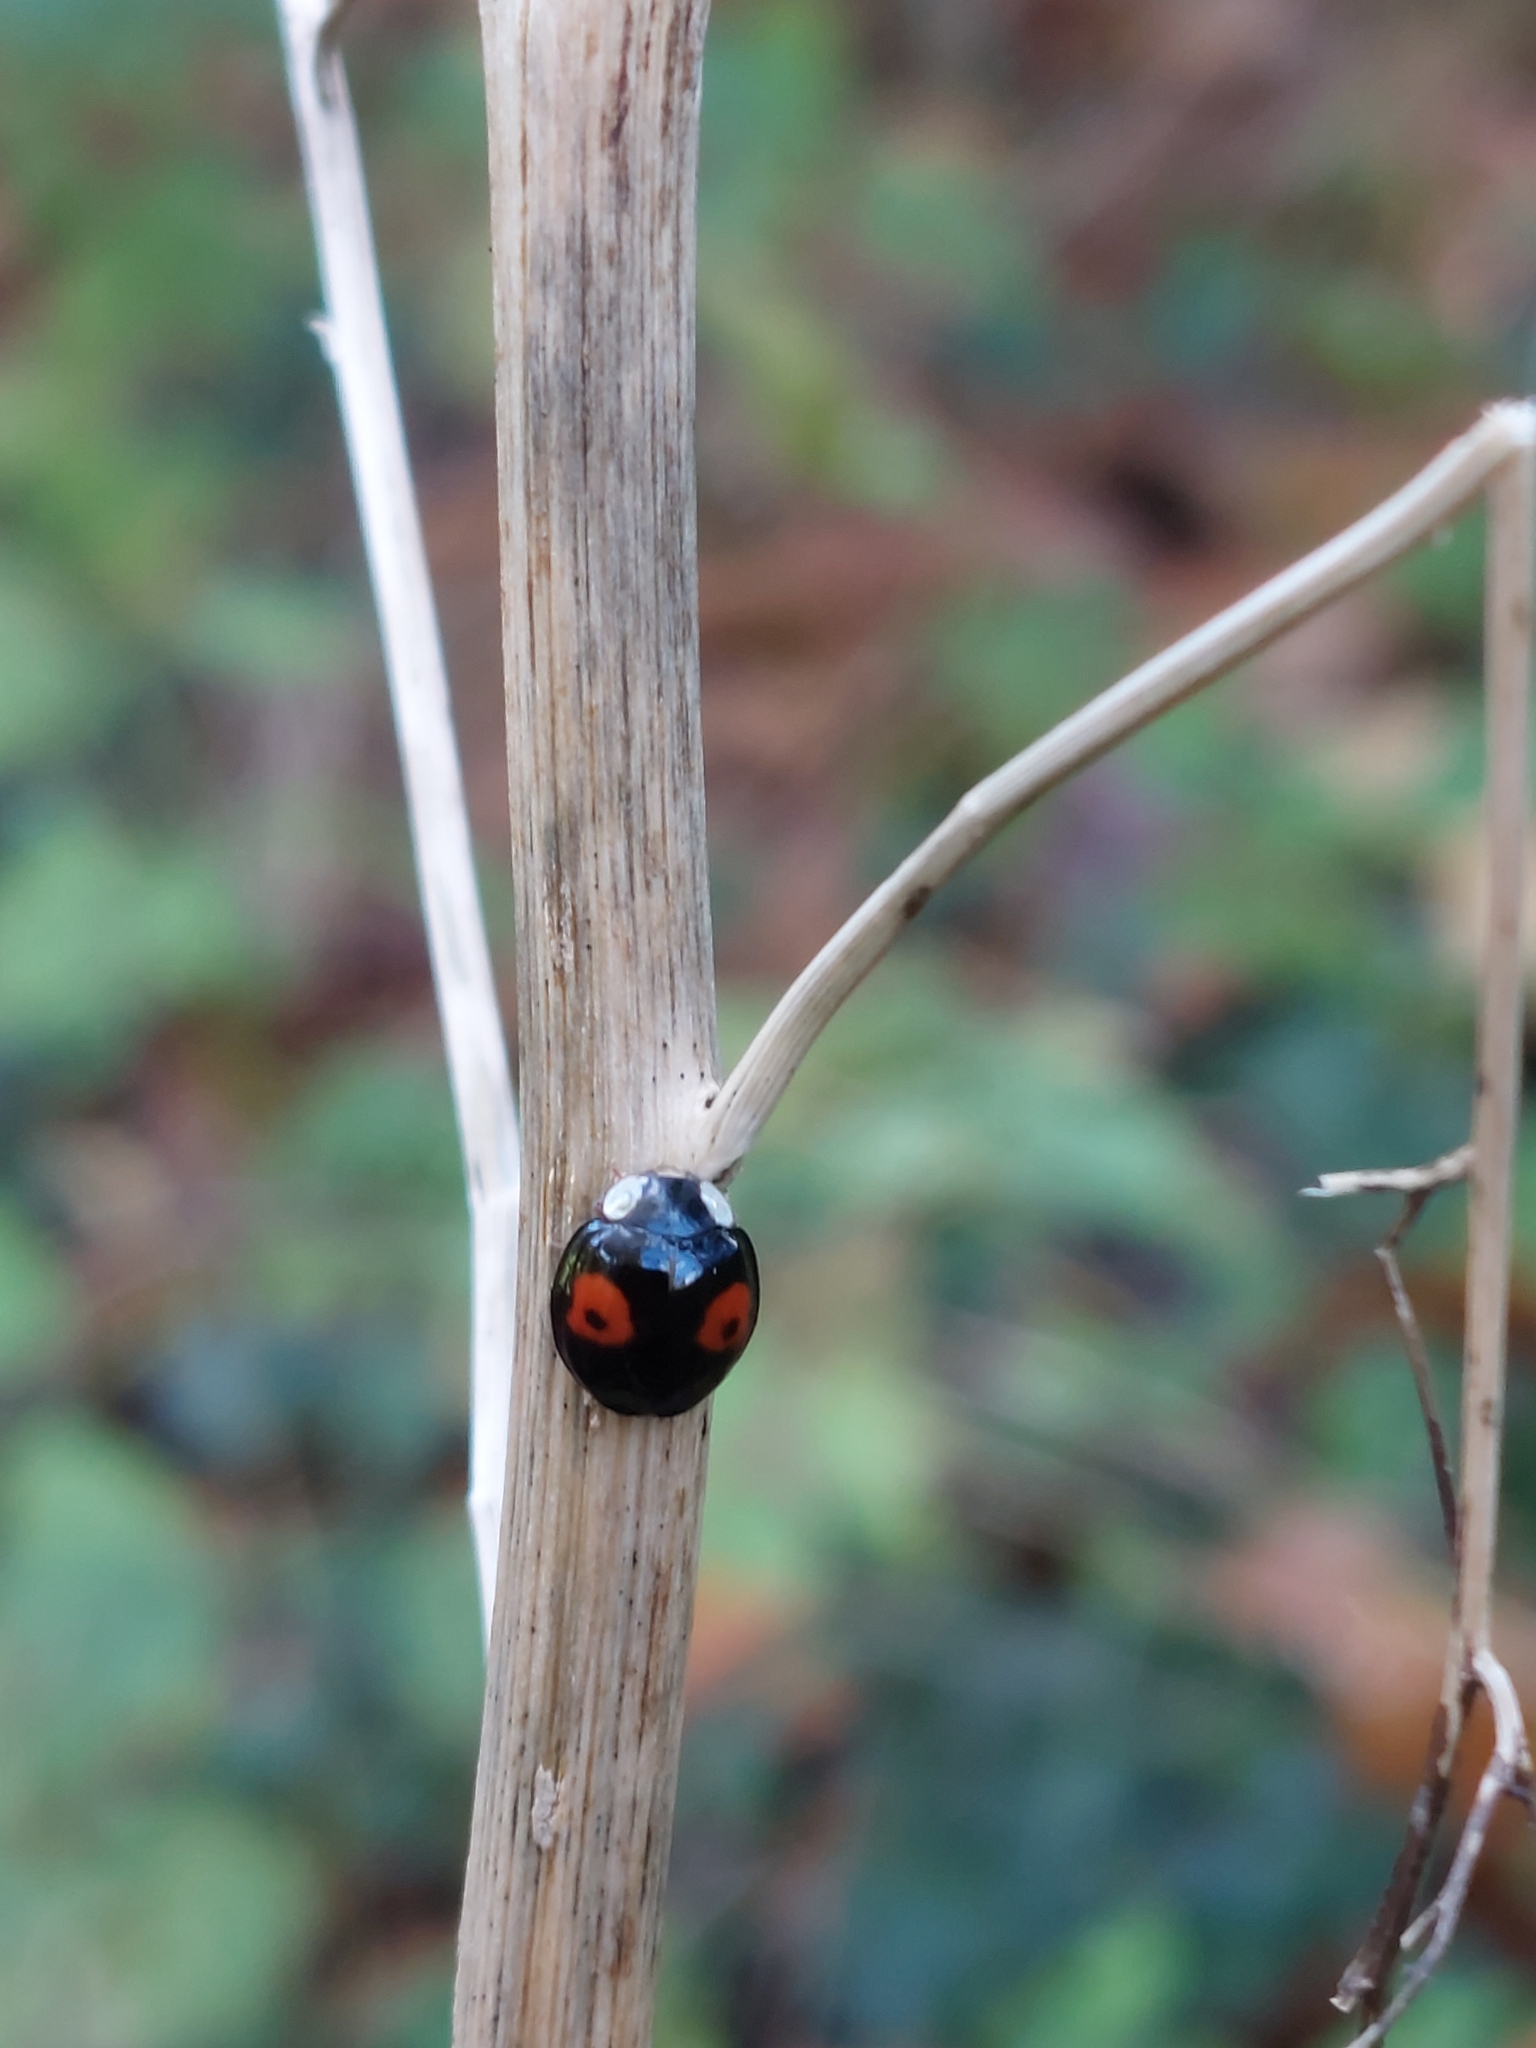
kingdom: Animalia
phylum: Arthropoda
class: Insecta
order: Coleoptera
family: Coccinellidae
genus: Harmonia
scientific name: Harmonia axyridis
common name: Harlequin ladybird
